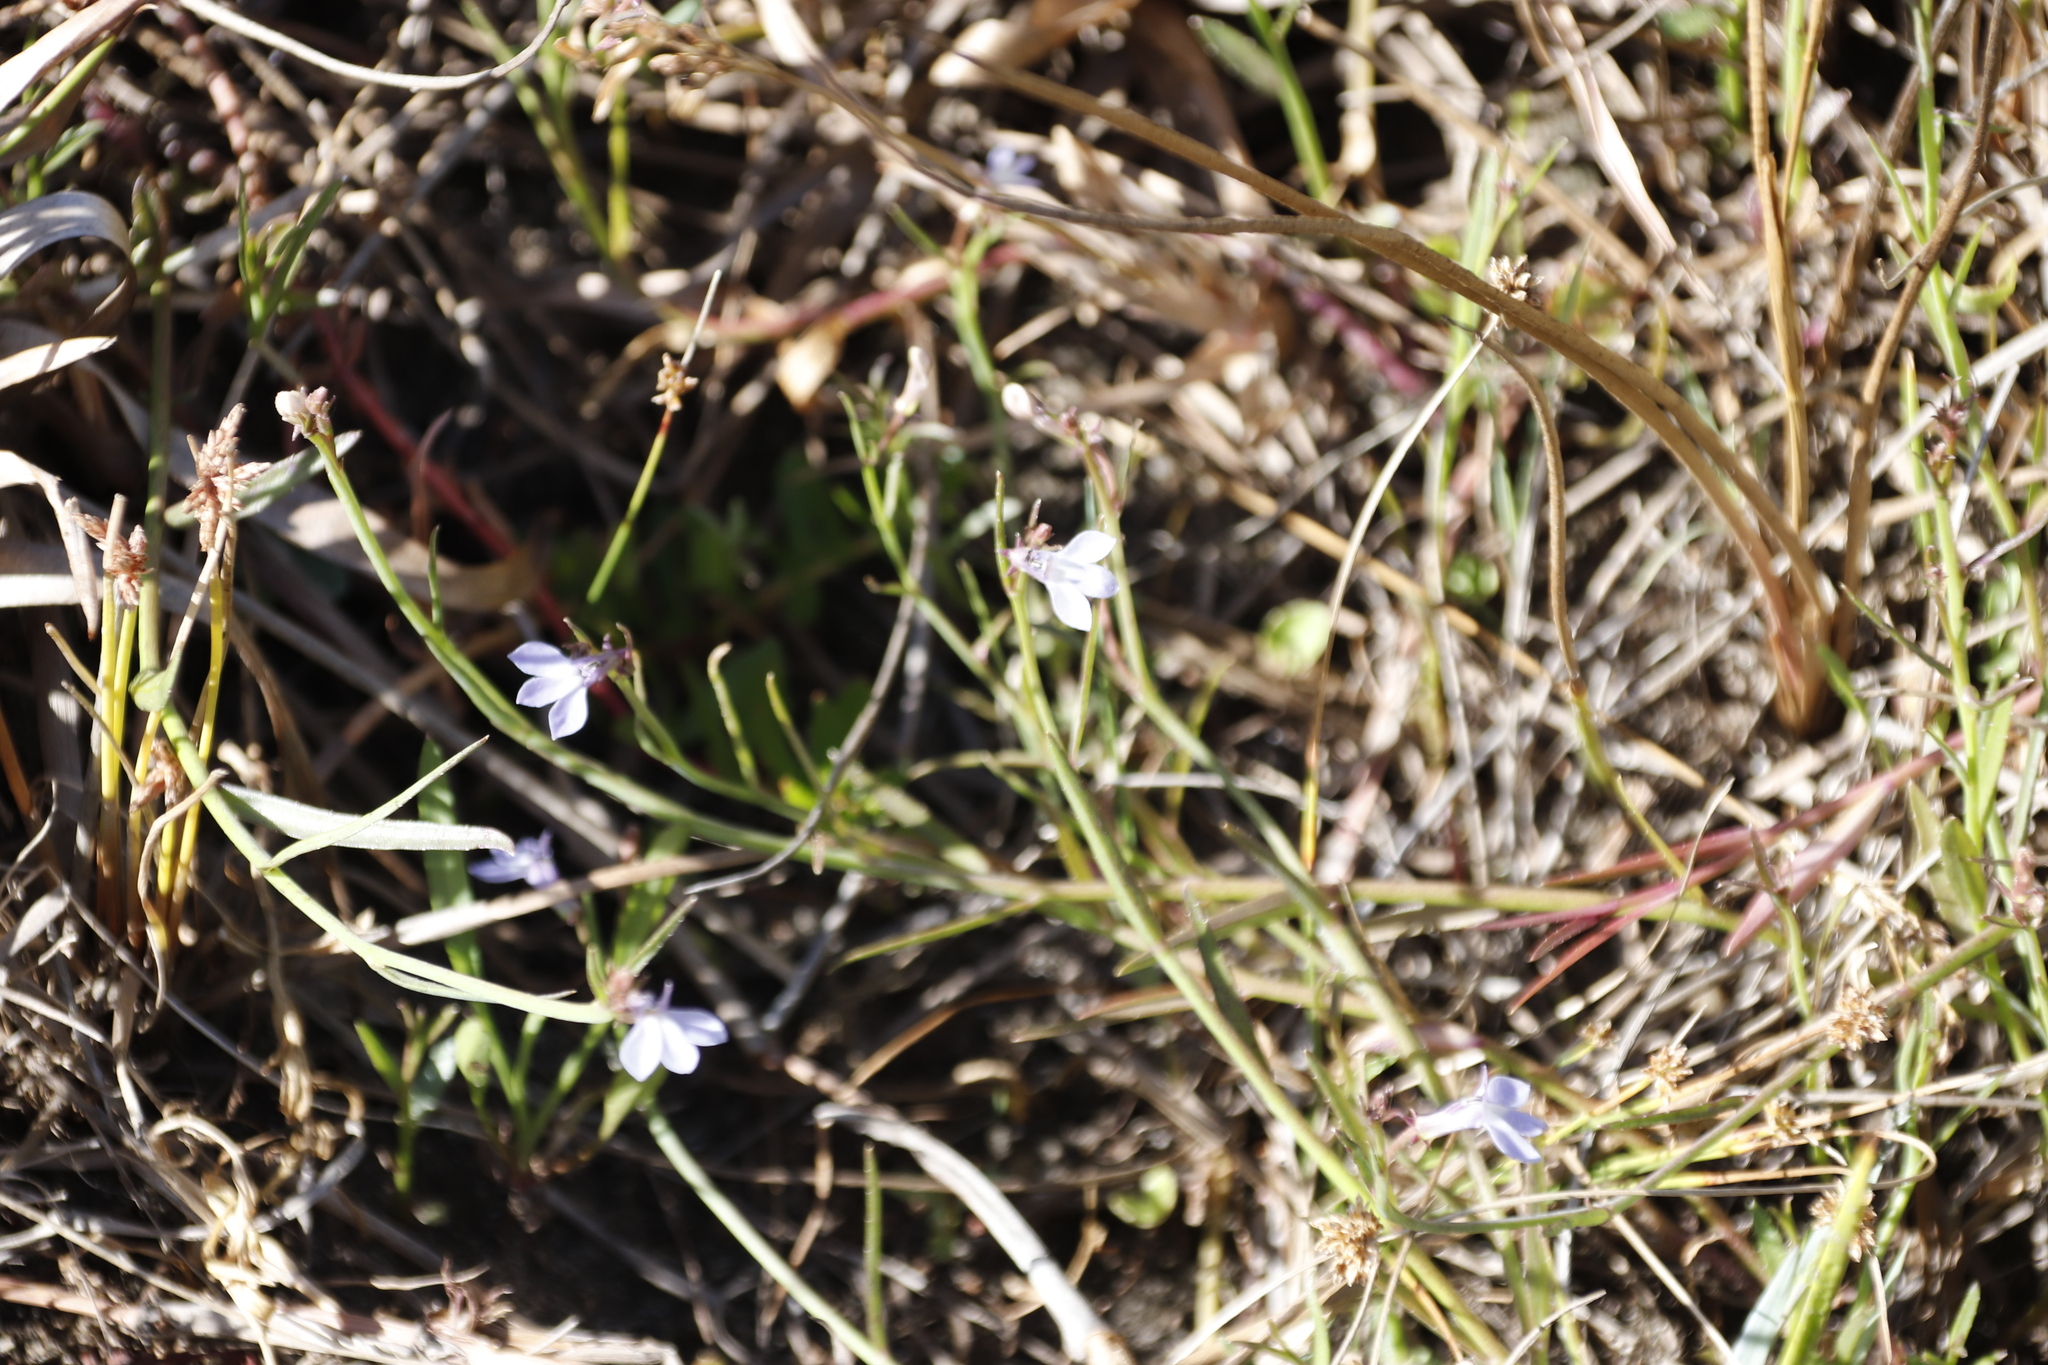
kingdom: Plantae
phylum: Tracheophyta
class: Magnoliopsida
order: Asterales
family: Campanulaceae
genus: Grammatotheca
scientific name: Grammatotheca bergiana
